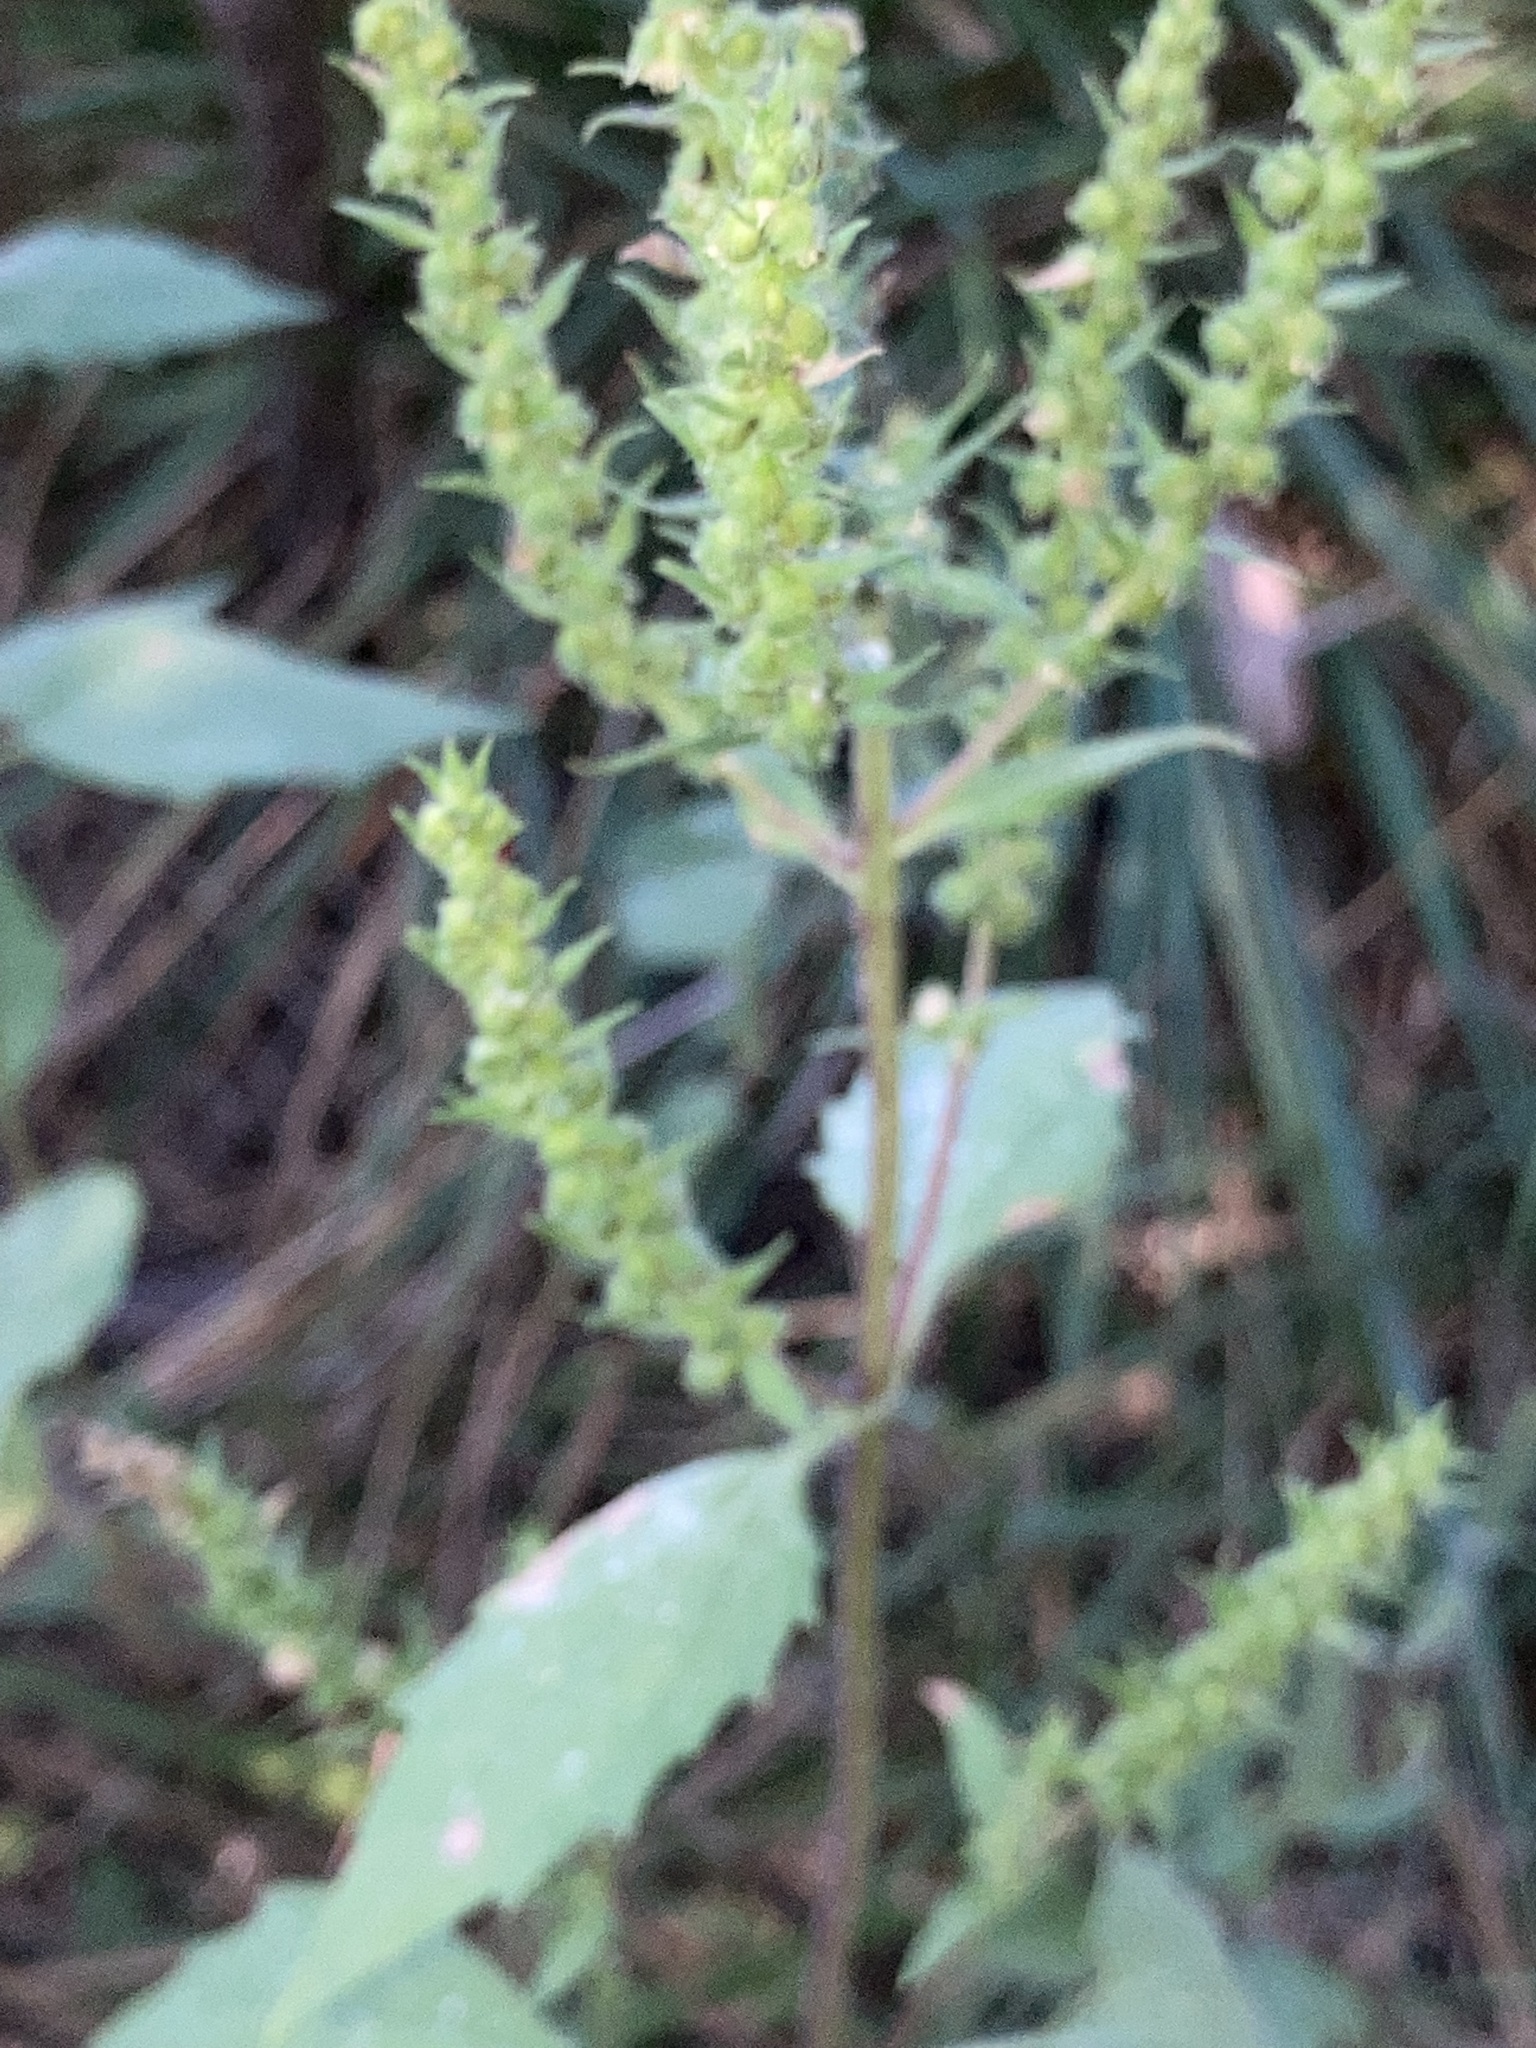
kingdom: Plantae
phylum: Tracheophyta
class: Magnoliopsida
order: Asterales
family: Asteraceae
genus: Iva
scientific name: Iva annua
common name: Marsh-elder
